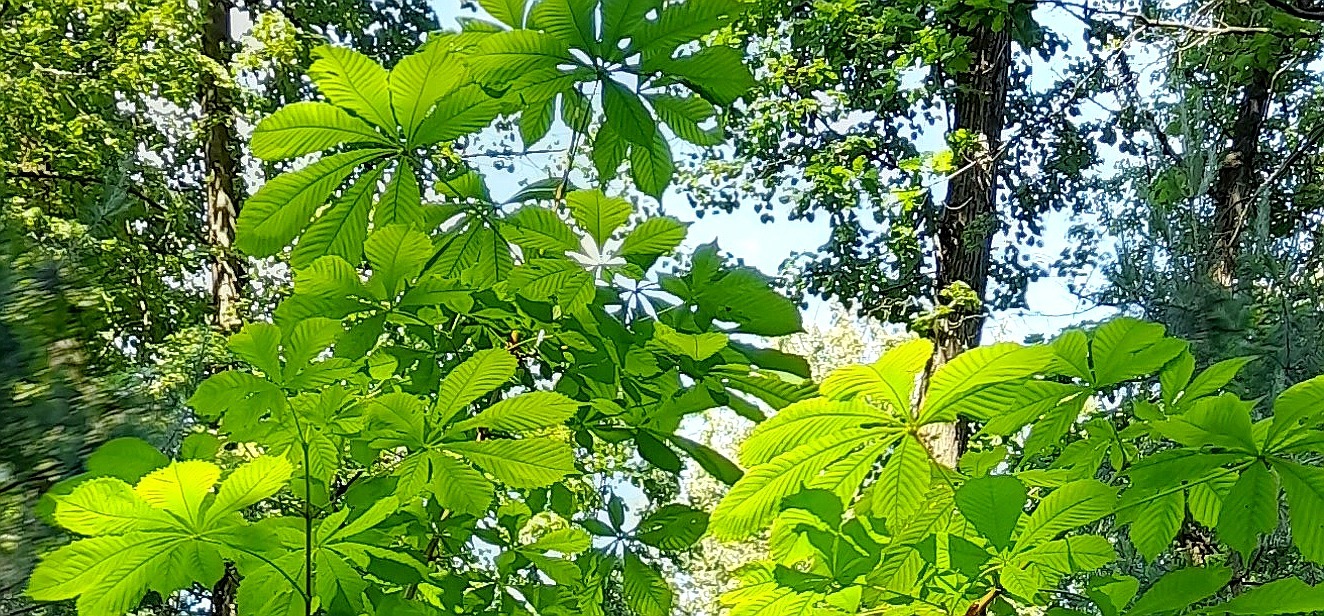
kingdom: Plantae
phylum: Tracheophyta
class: Magnoliopsida
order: Sapindales
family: Sapindaceae
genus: Aesculus
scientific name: Aesculus hippocastanum
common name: Horse-chestnut
